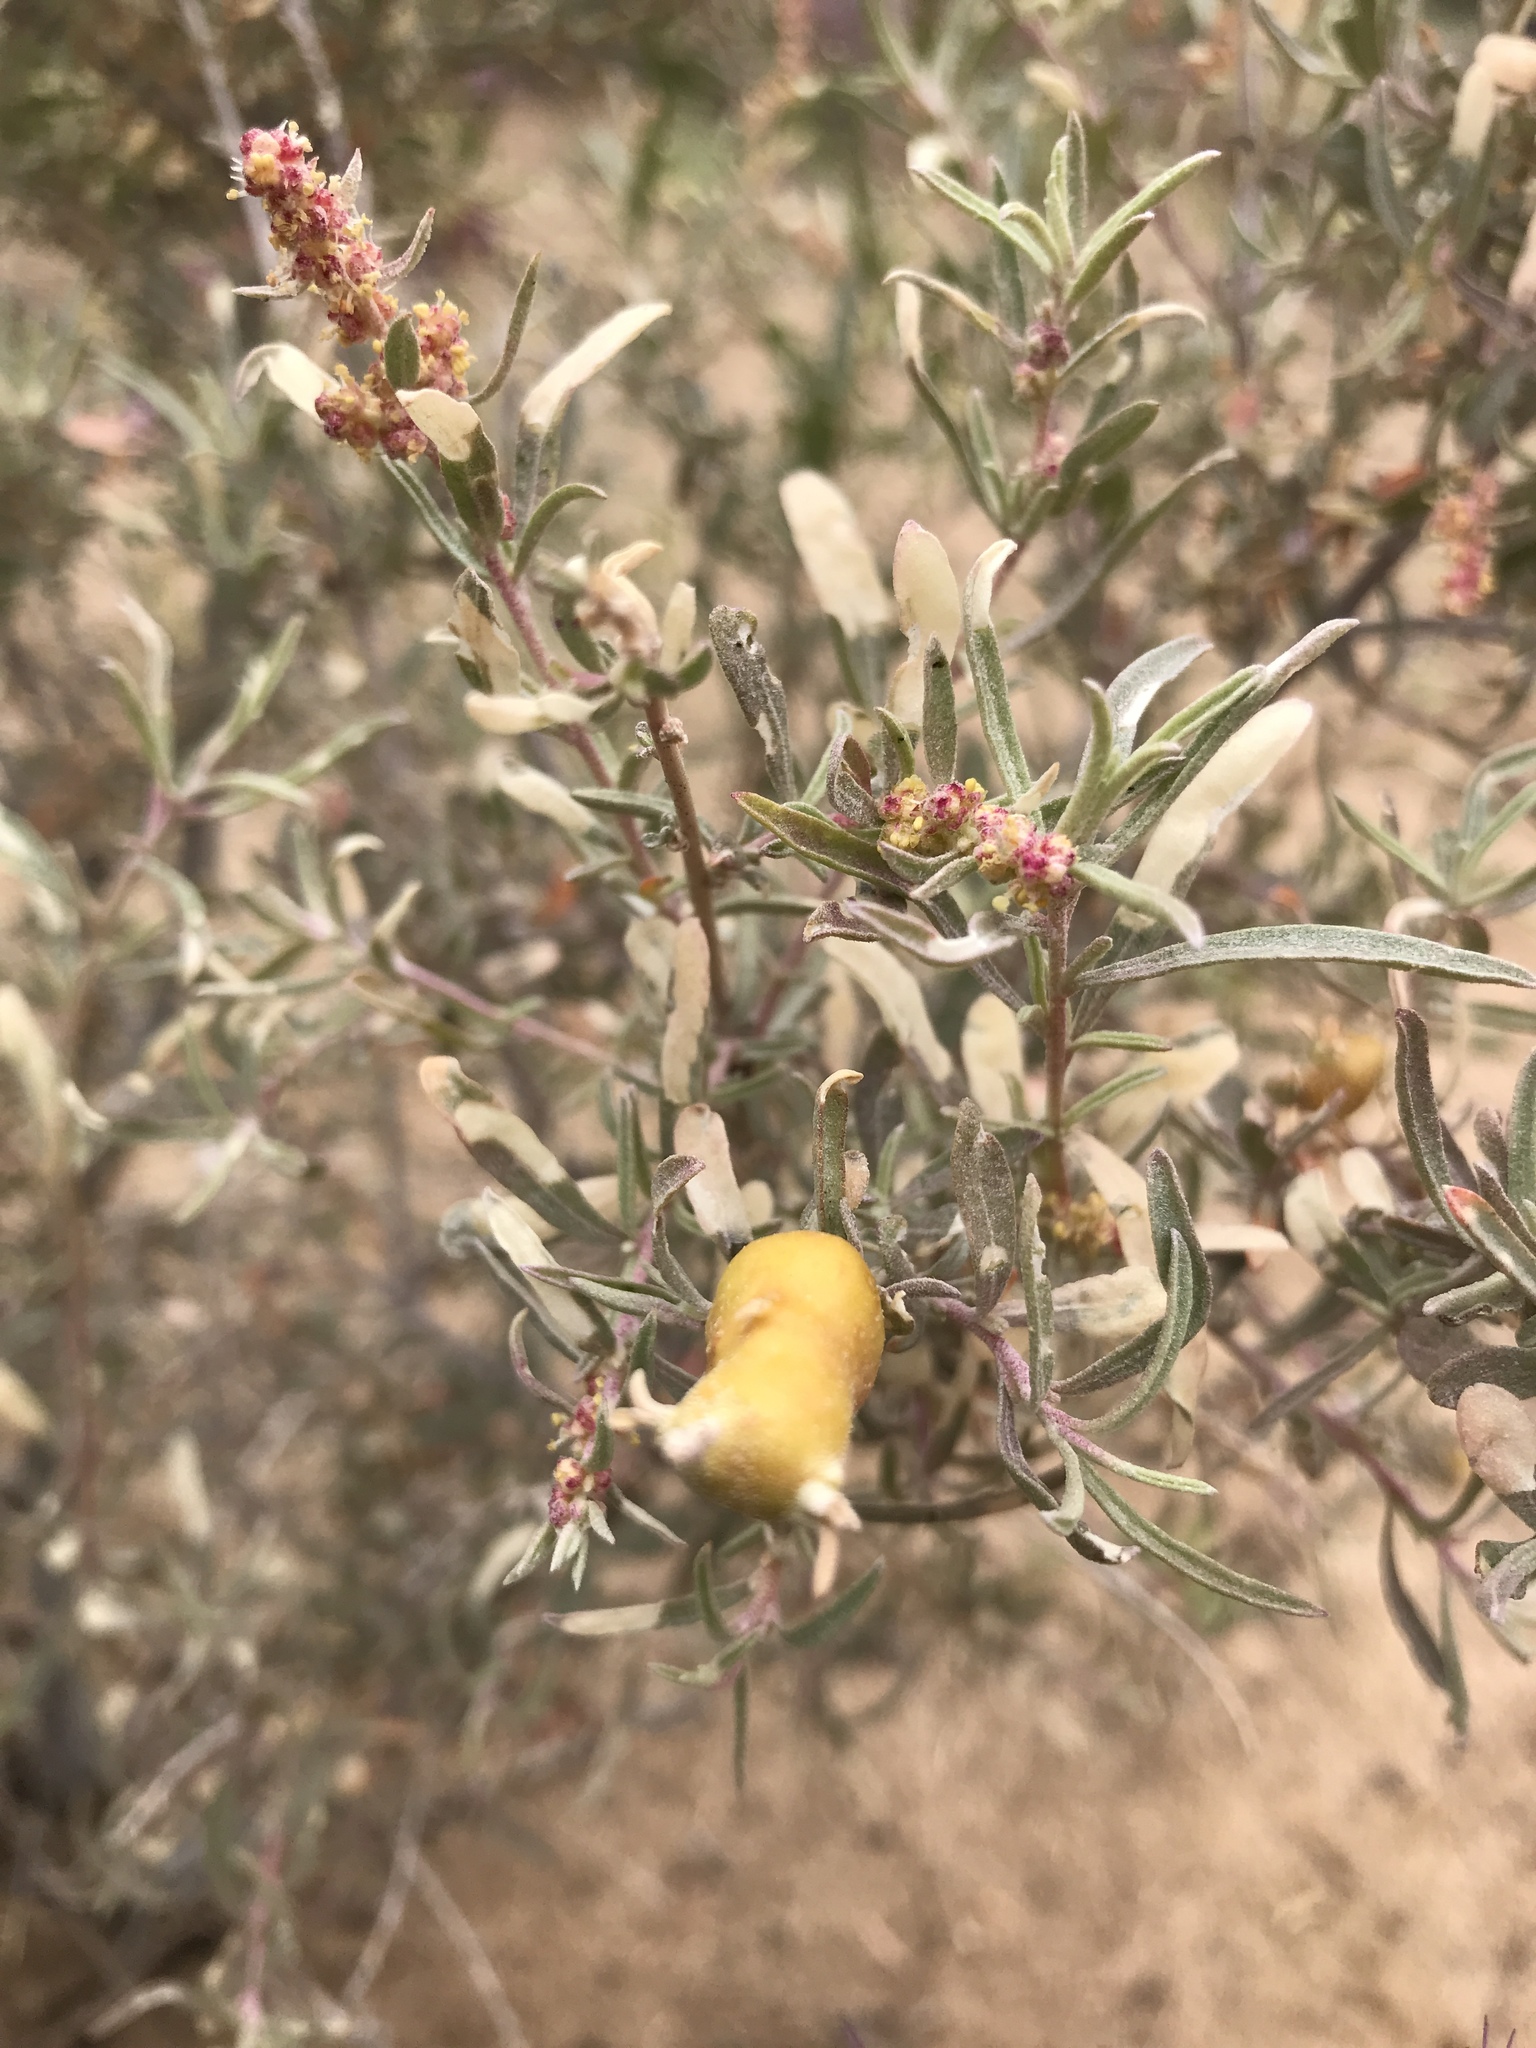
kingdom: Animalia
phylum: Arthropoda
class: Insecta
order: Diptera
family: Cecidomyiidae
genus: Asphondylia
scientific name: Asphondylia atriplicis
